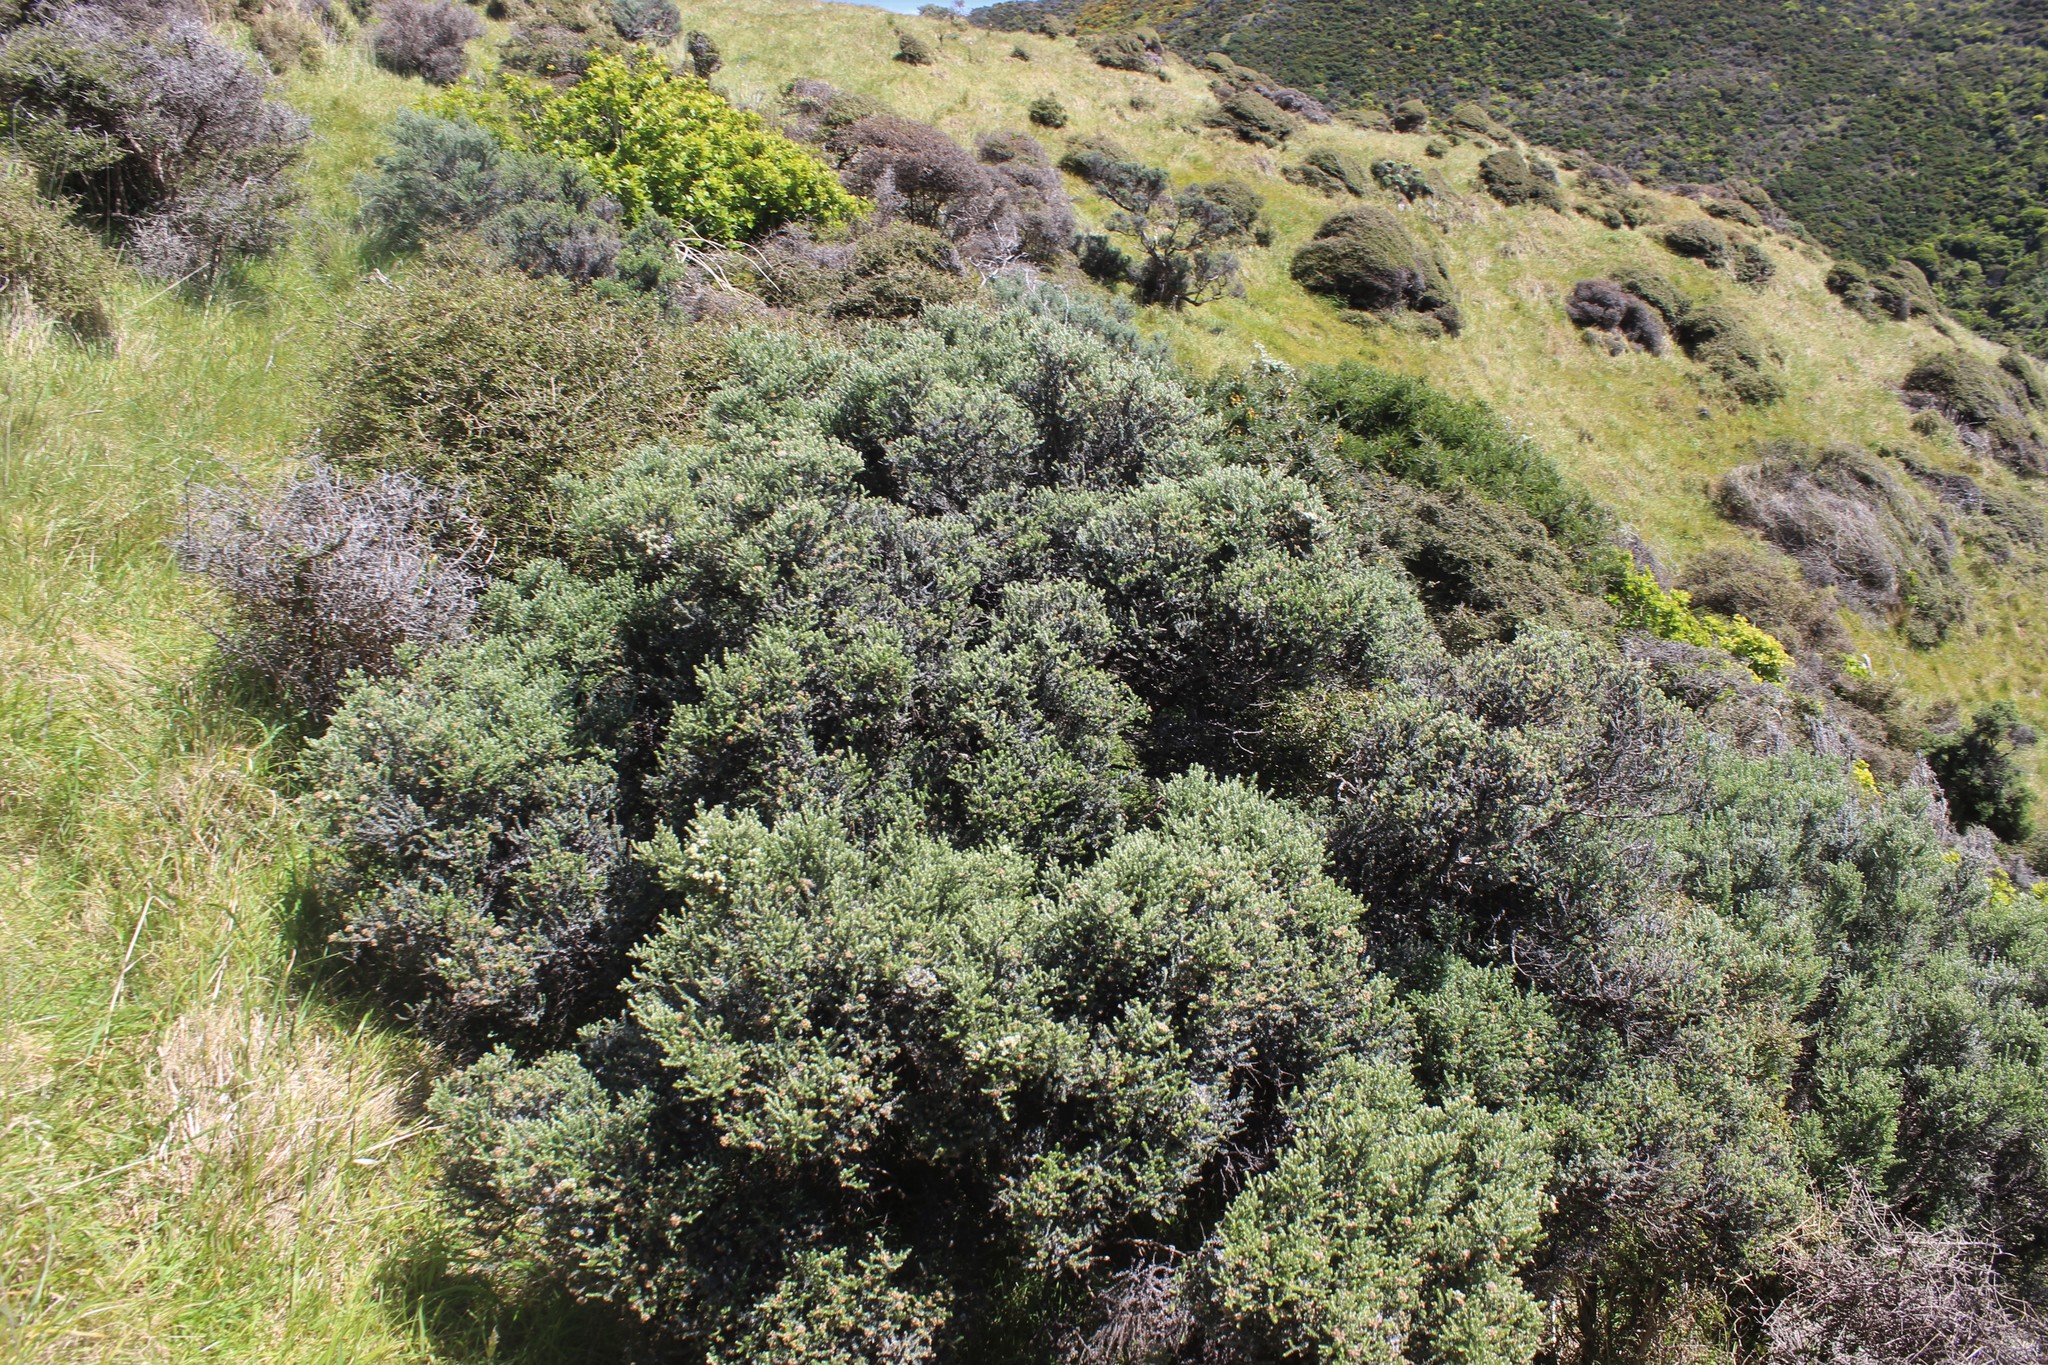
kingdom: Plantae
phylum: Tracheophyta
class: Magnoliopsida
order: Asterales
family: Asteraceae
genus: Ozothamnus
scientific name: Ozothamnus leptophyllus
